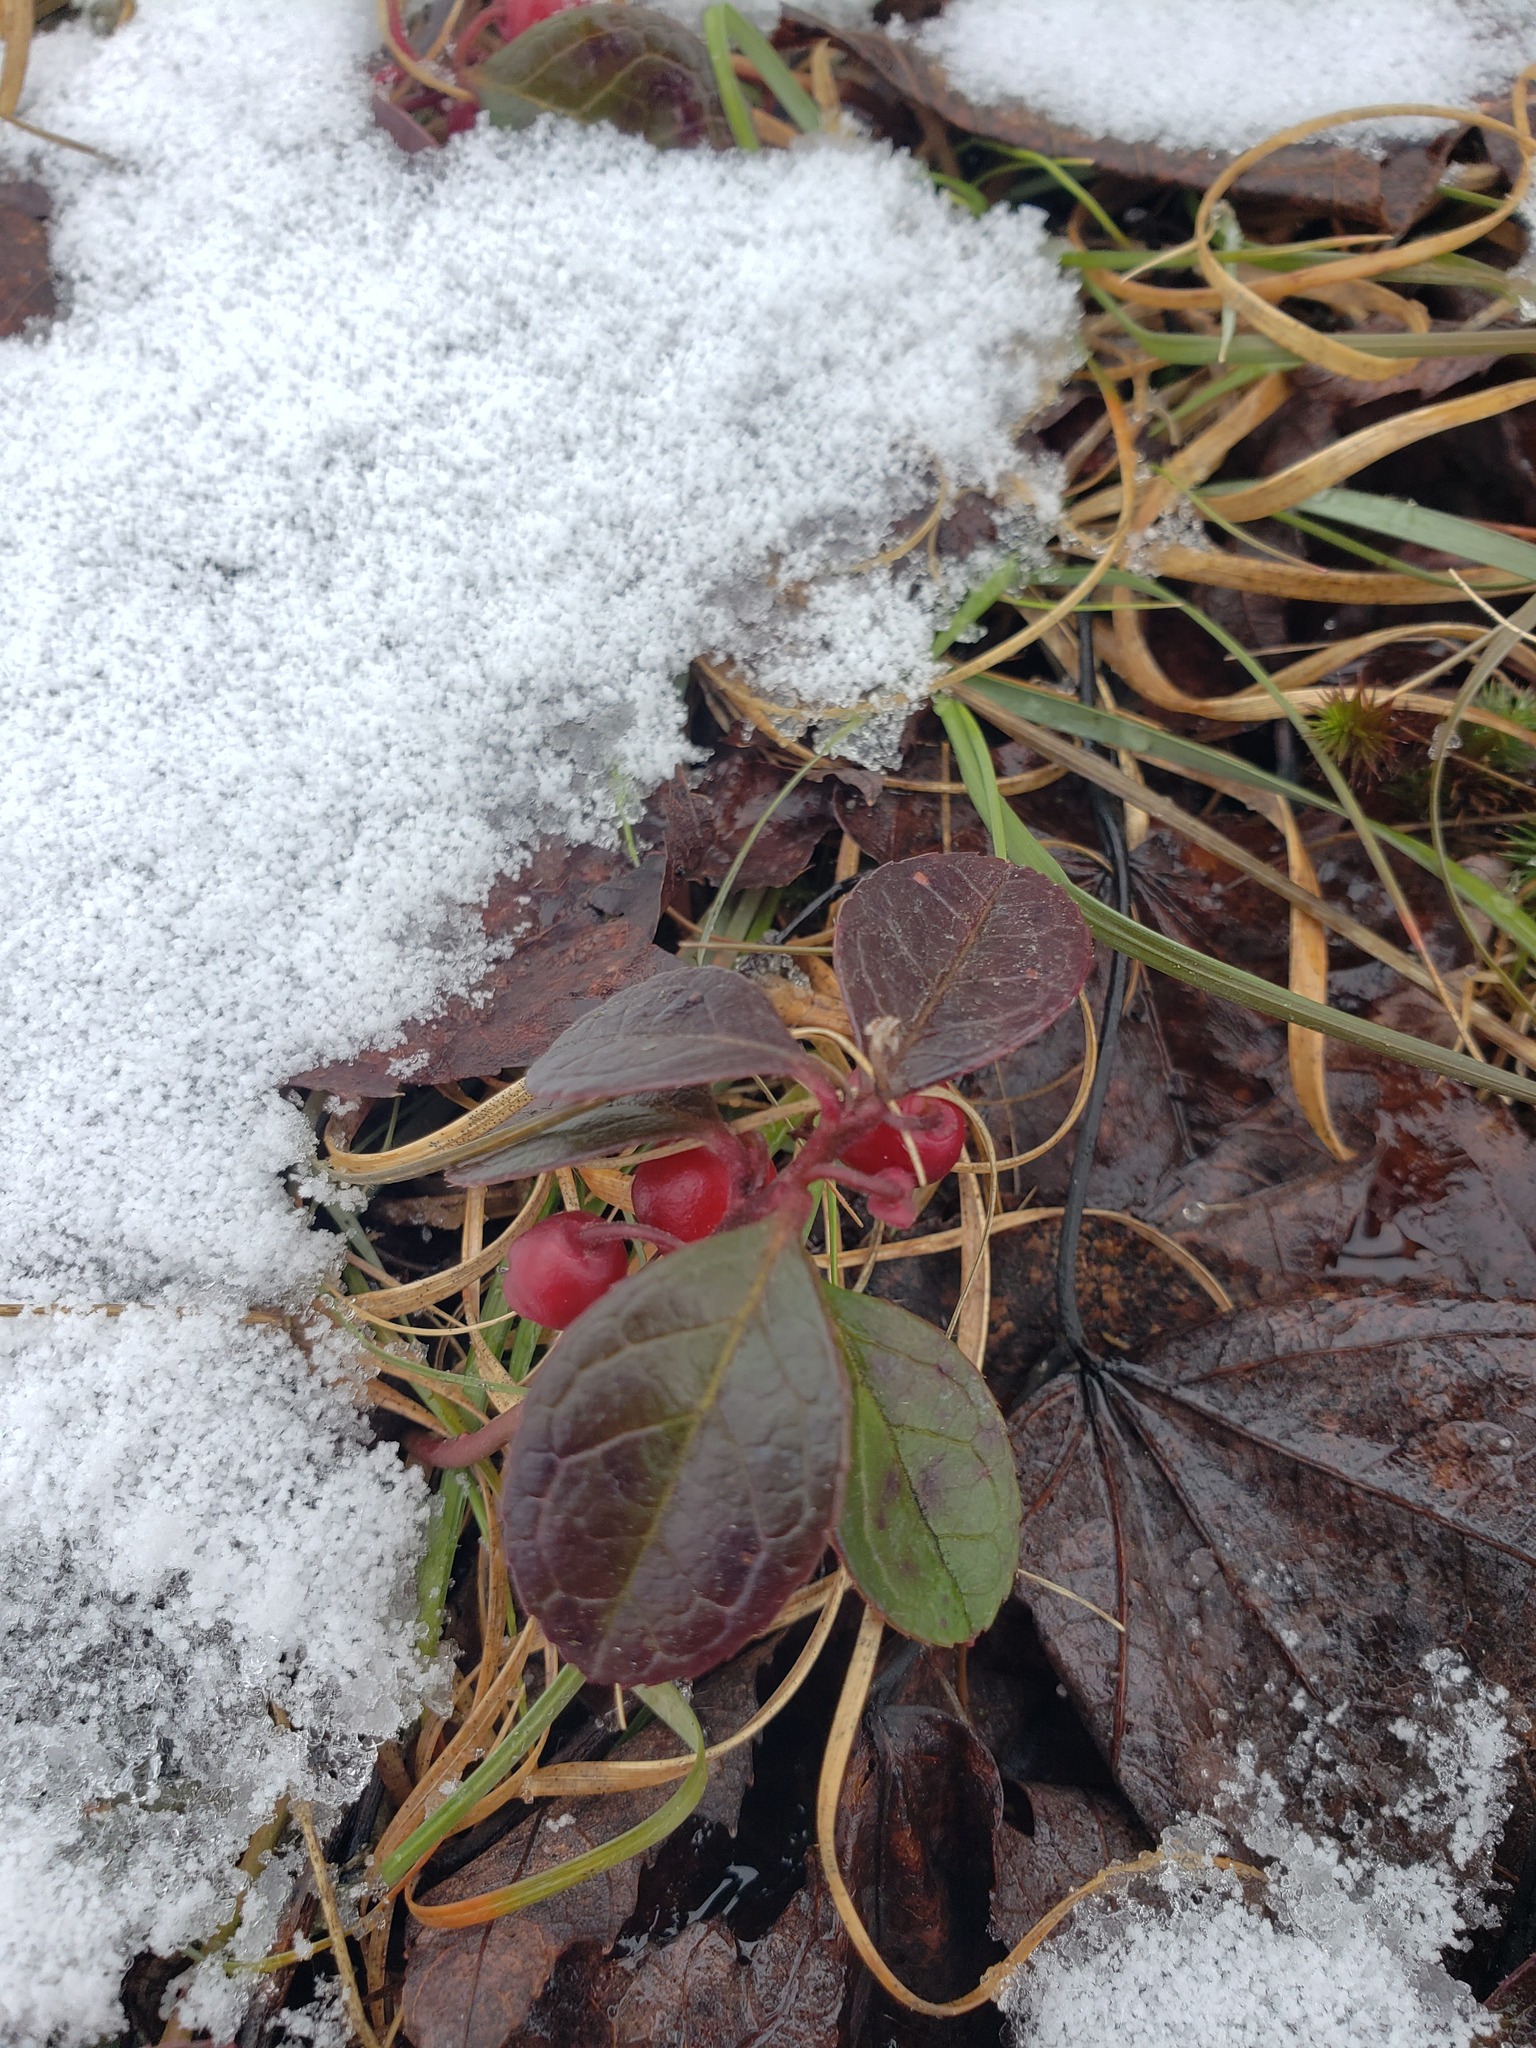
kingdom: Plantae
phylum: Tracheophyta
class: Magnoliopsida
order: Ericales
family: Ericaceae
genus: Gaultheria
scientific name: Gaultheria procumbens
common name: Checkerberry
